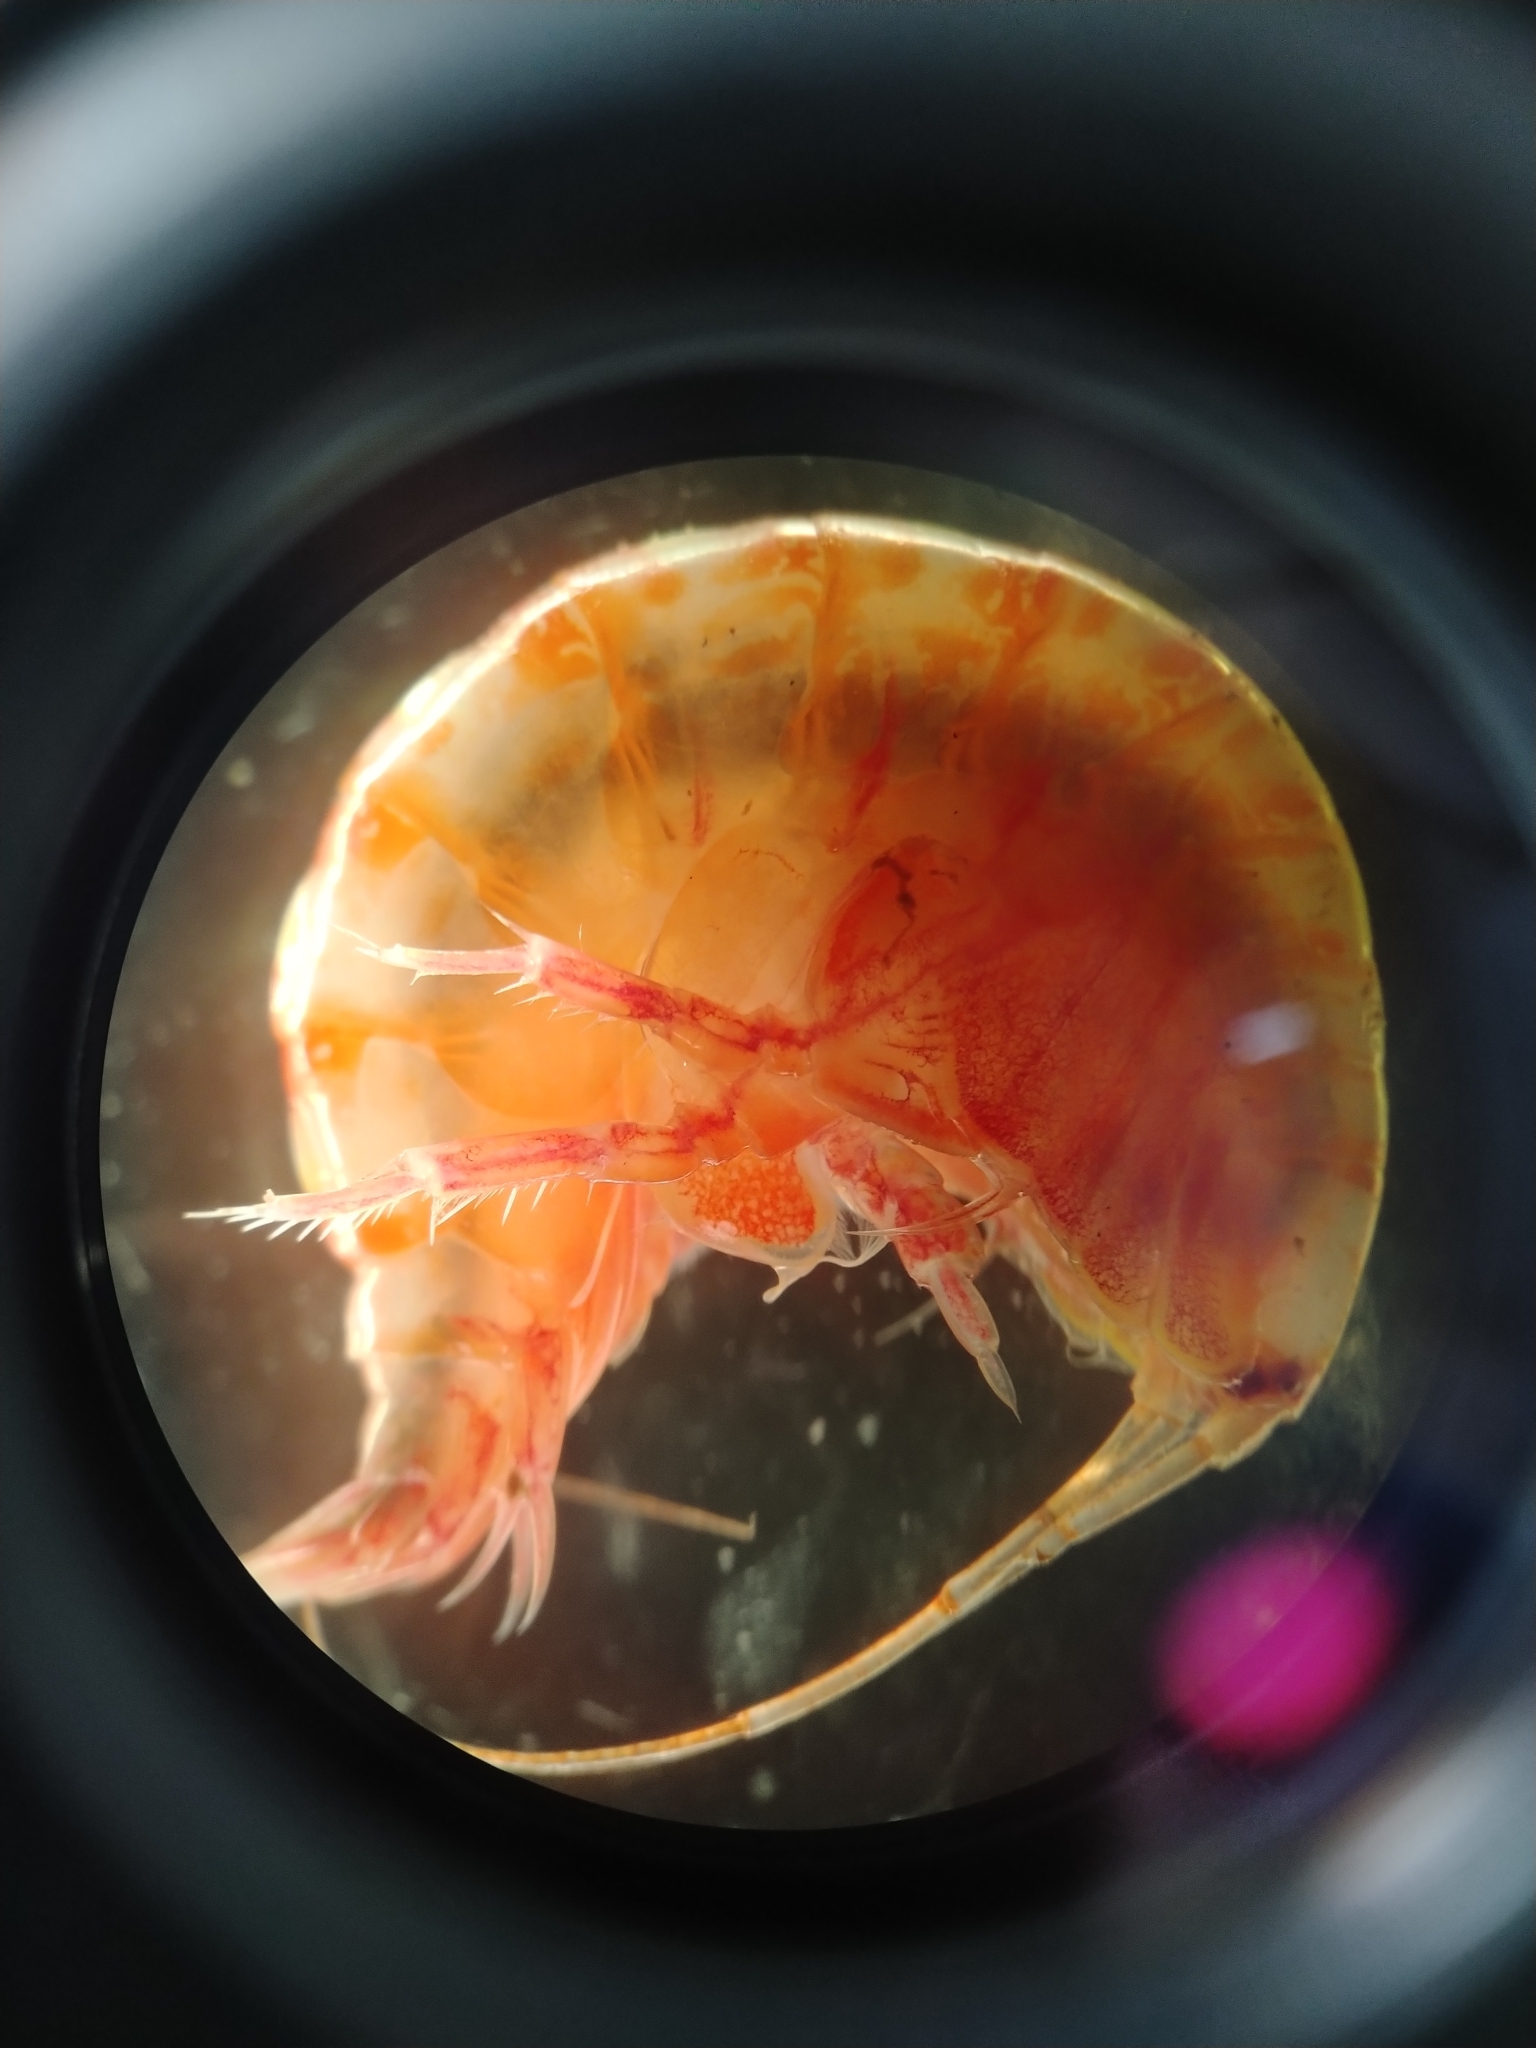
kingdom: Animalia
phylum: Arthropoda
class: Malacostraca
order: Amphipoda
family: Ampeliscidae
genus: Ampelisca
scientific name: Ampelisca eschrichtii
